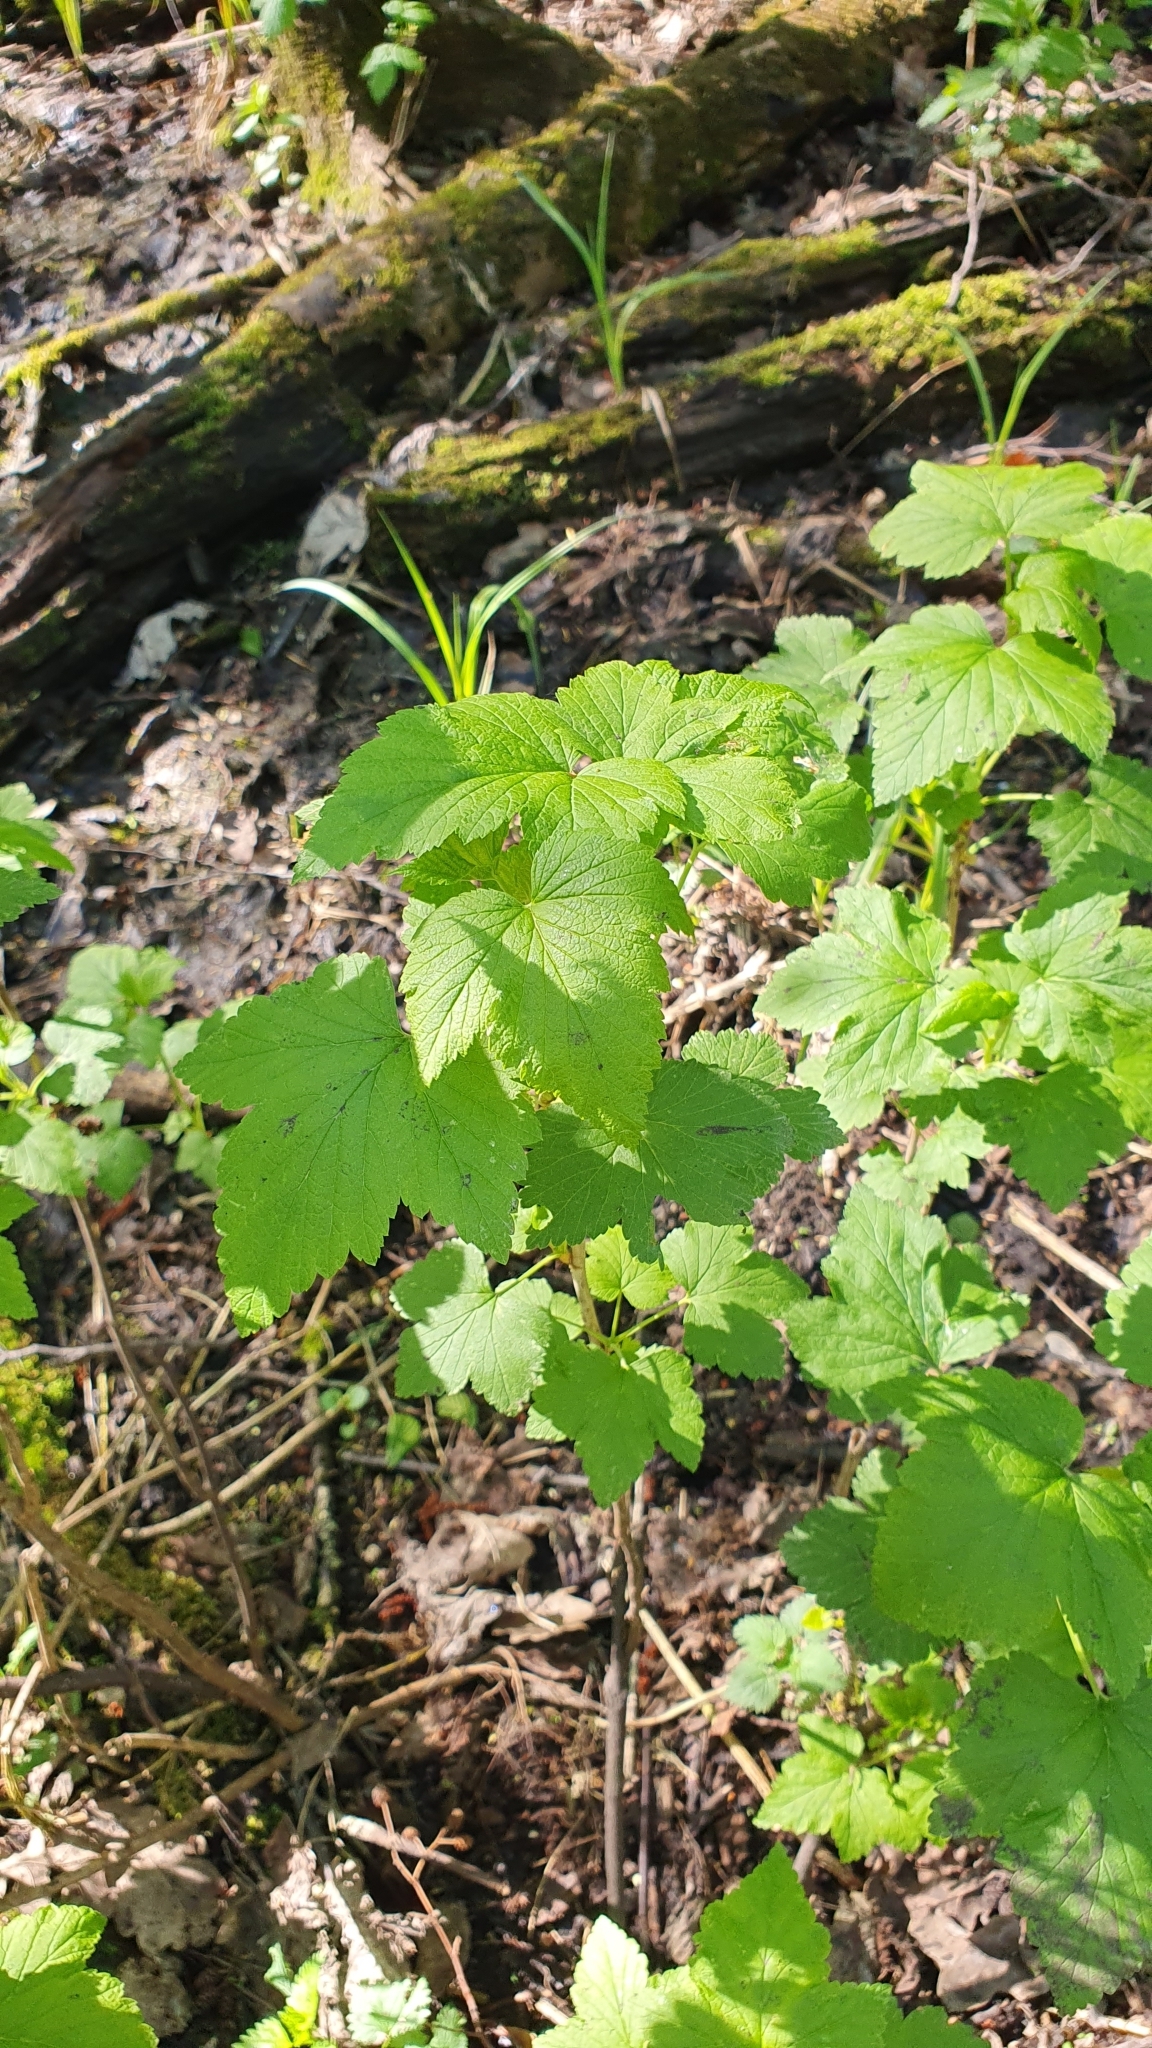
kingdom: Plantae
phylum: Tracheophyta
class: Magnoliopsida
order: Saxifragales
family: Grossulariaceae
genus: Ribes
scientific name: Ribes nigrum
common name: Black currant
